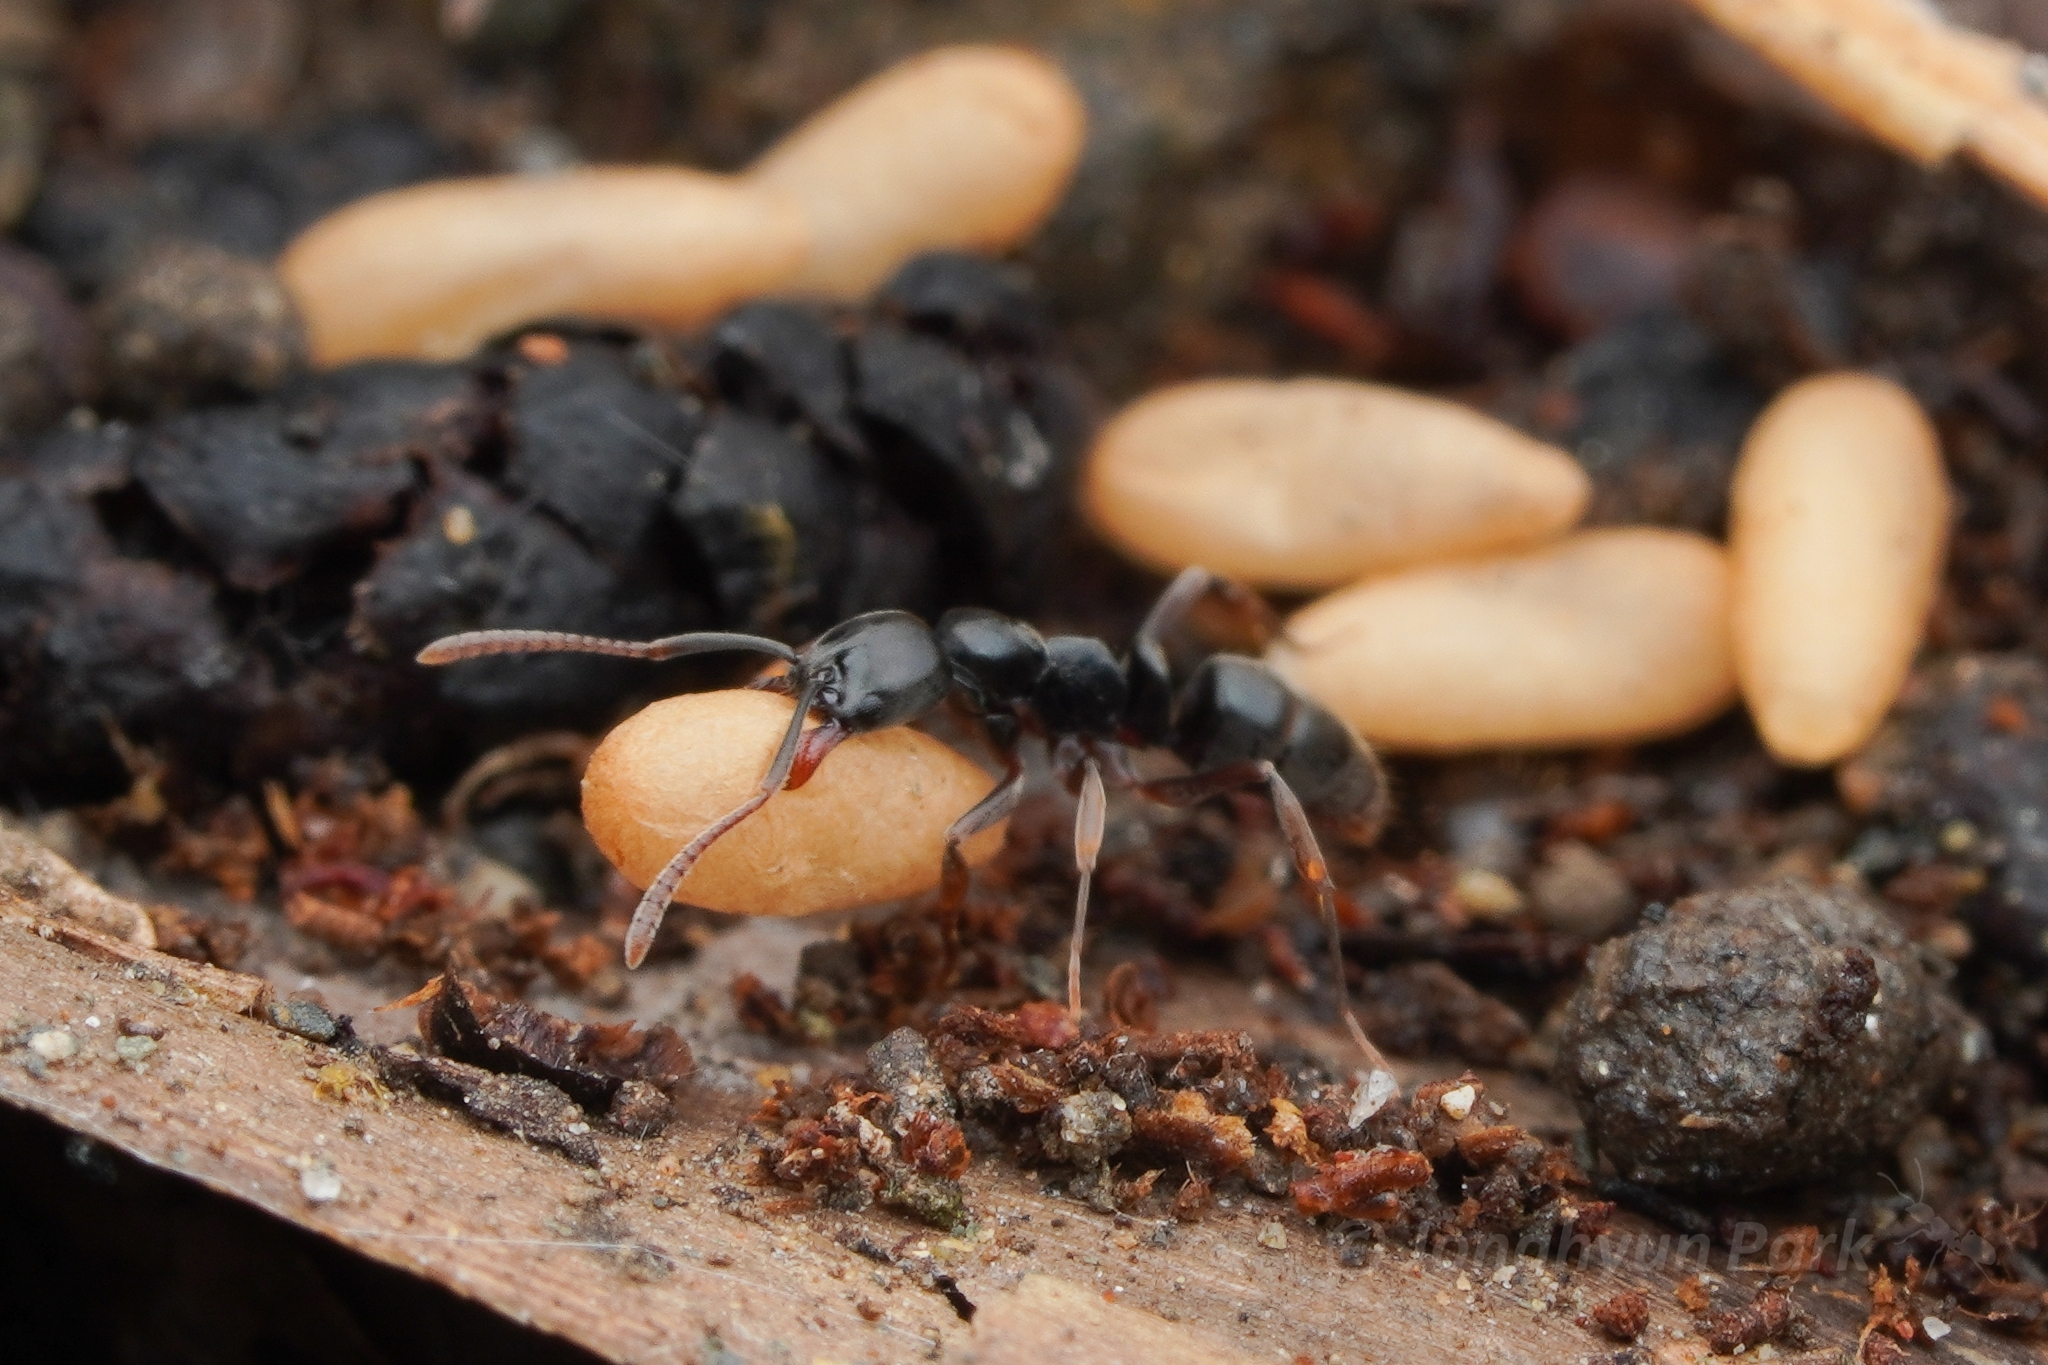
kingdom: Animalia
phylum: Arthropoda
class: Insecta
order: Hymenoptera
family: Formicidae
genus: Brachyponera
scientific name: Brachyponera
